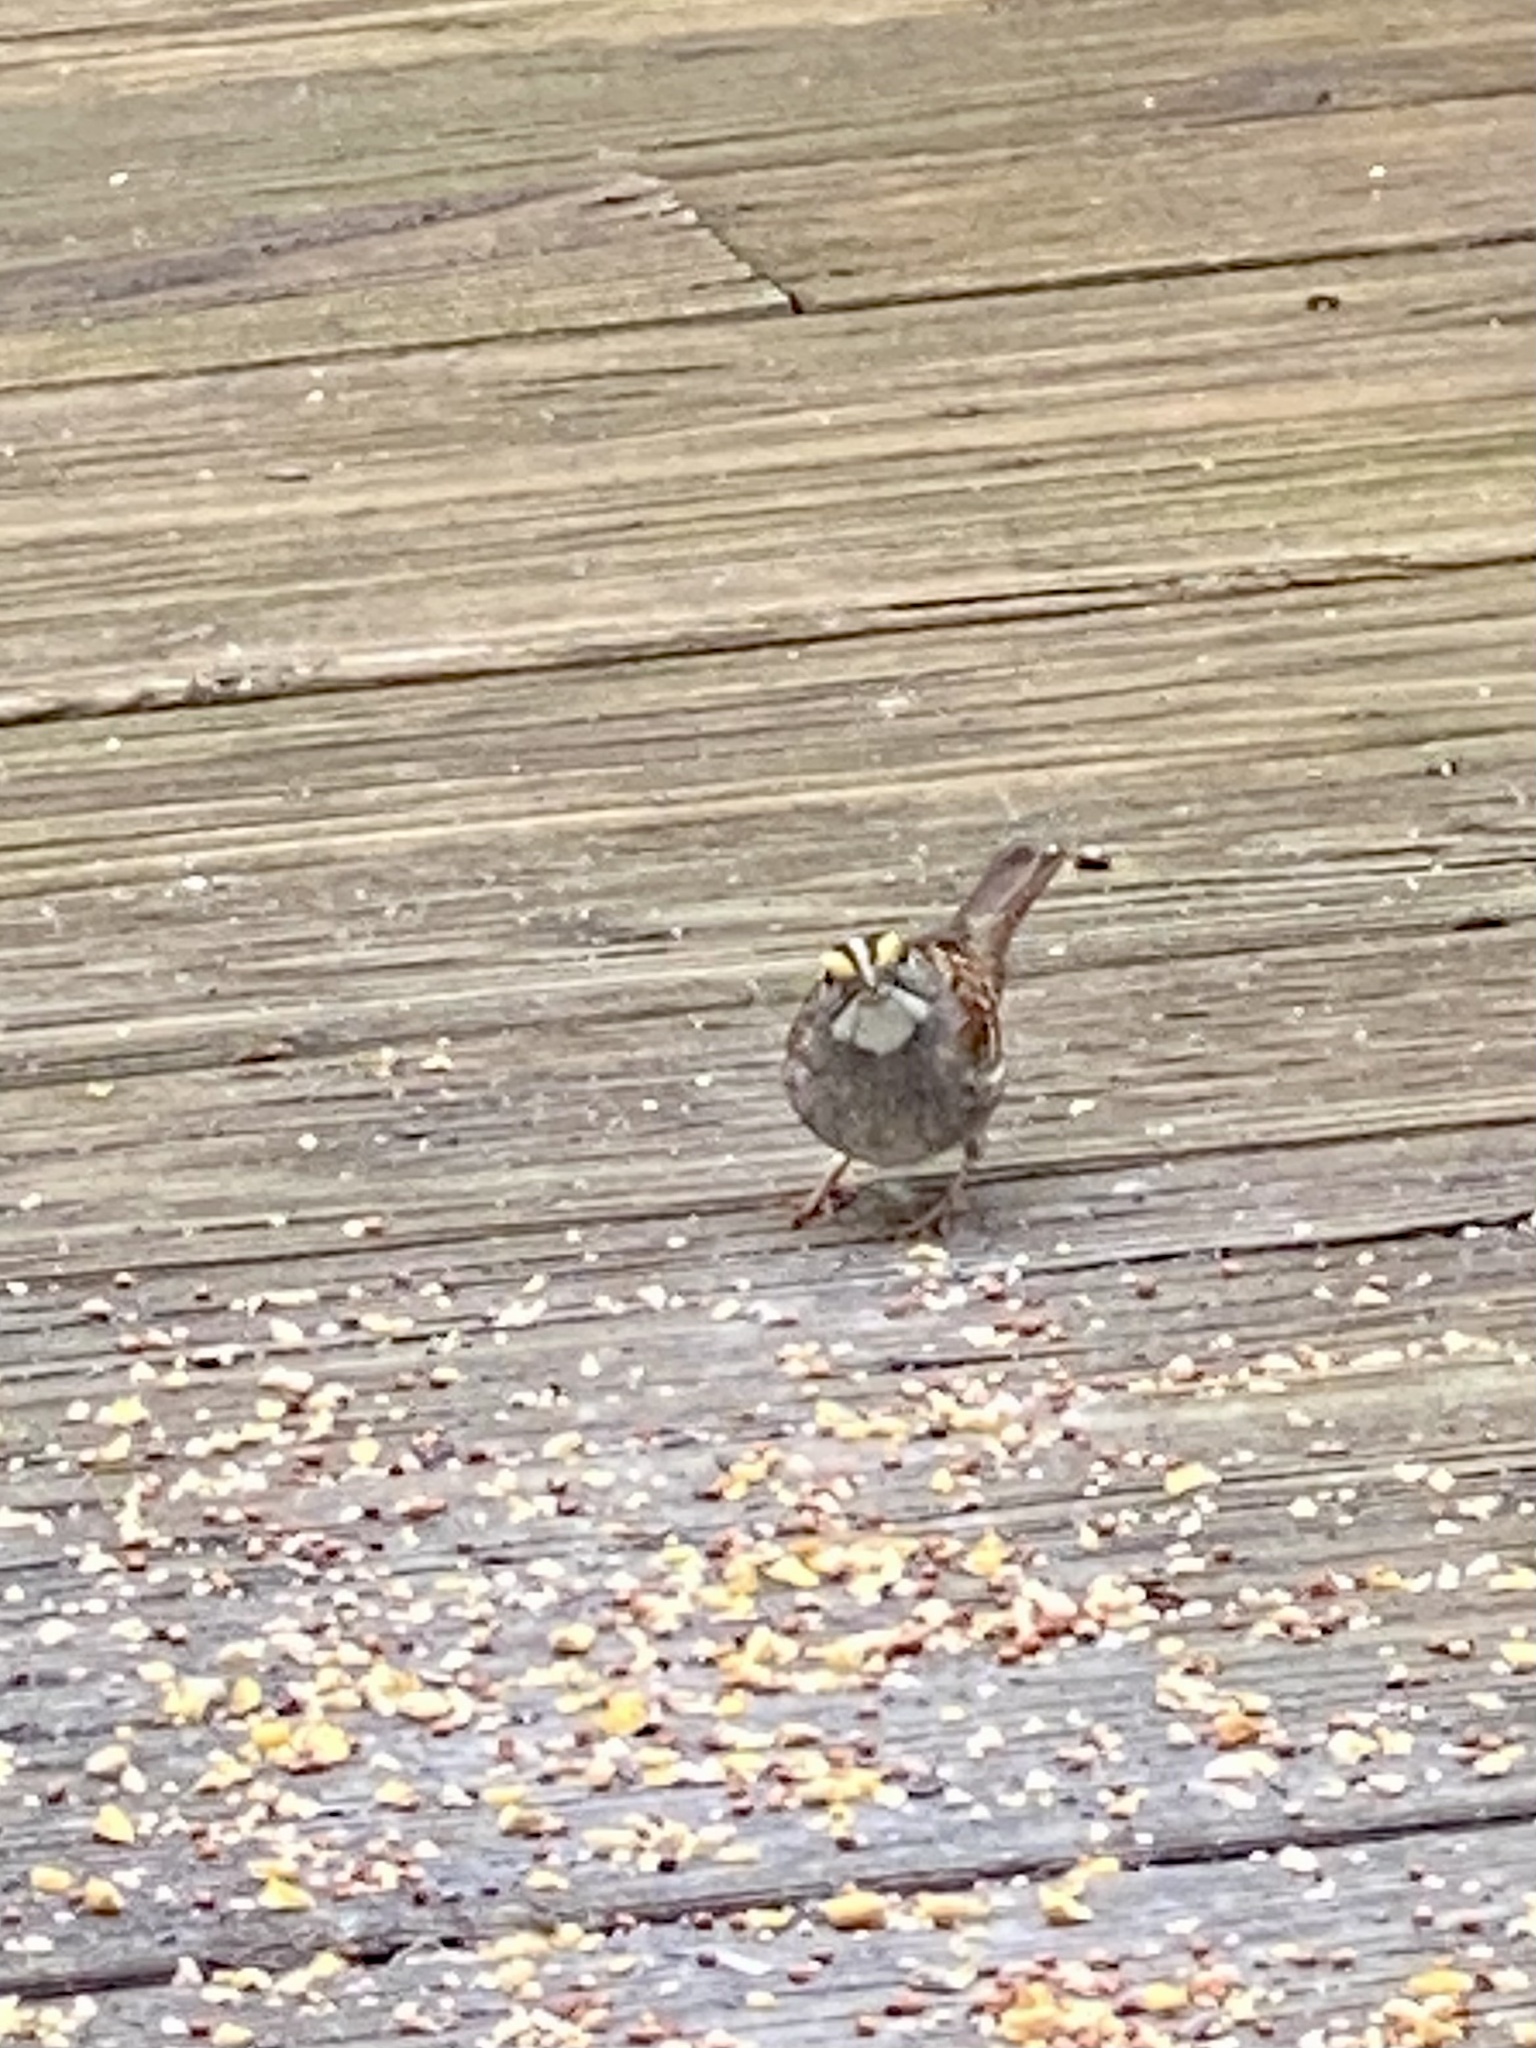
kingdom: Animalia
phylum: Chordata
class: Aves
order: Passeriformes
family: Passerellidae
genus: Zonotrichia
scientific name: Zonotrichia albicollis
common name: White-throated sparrow
